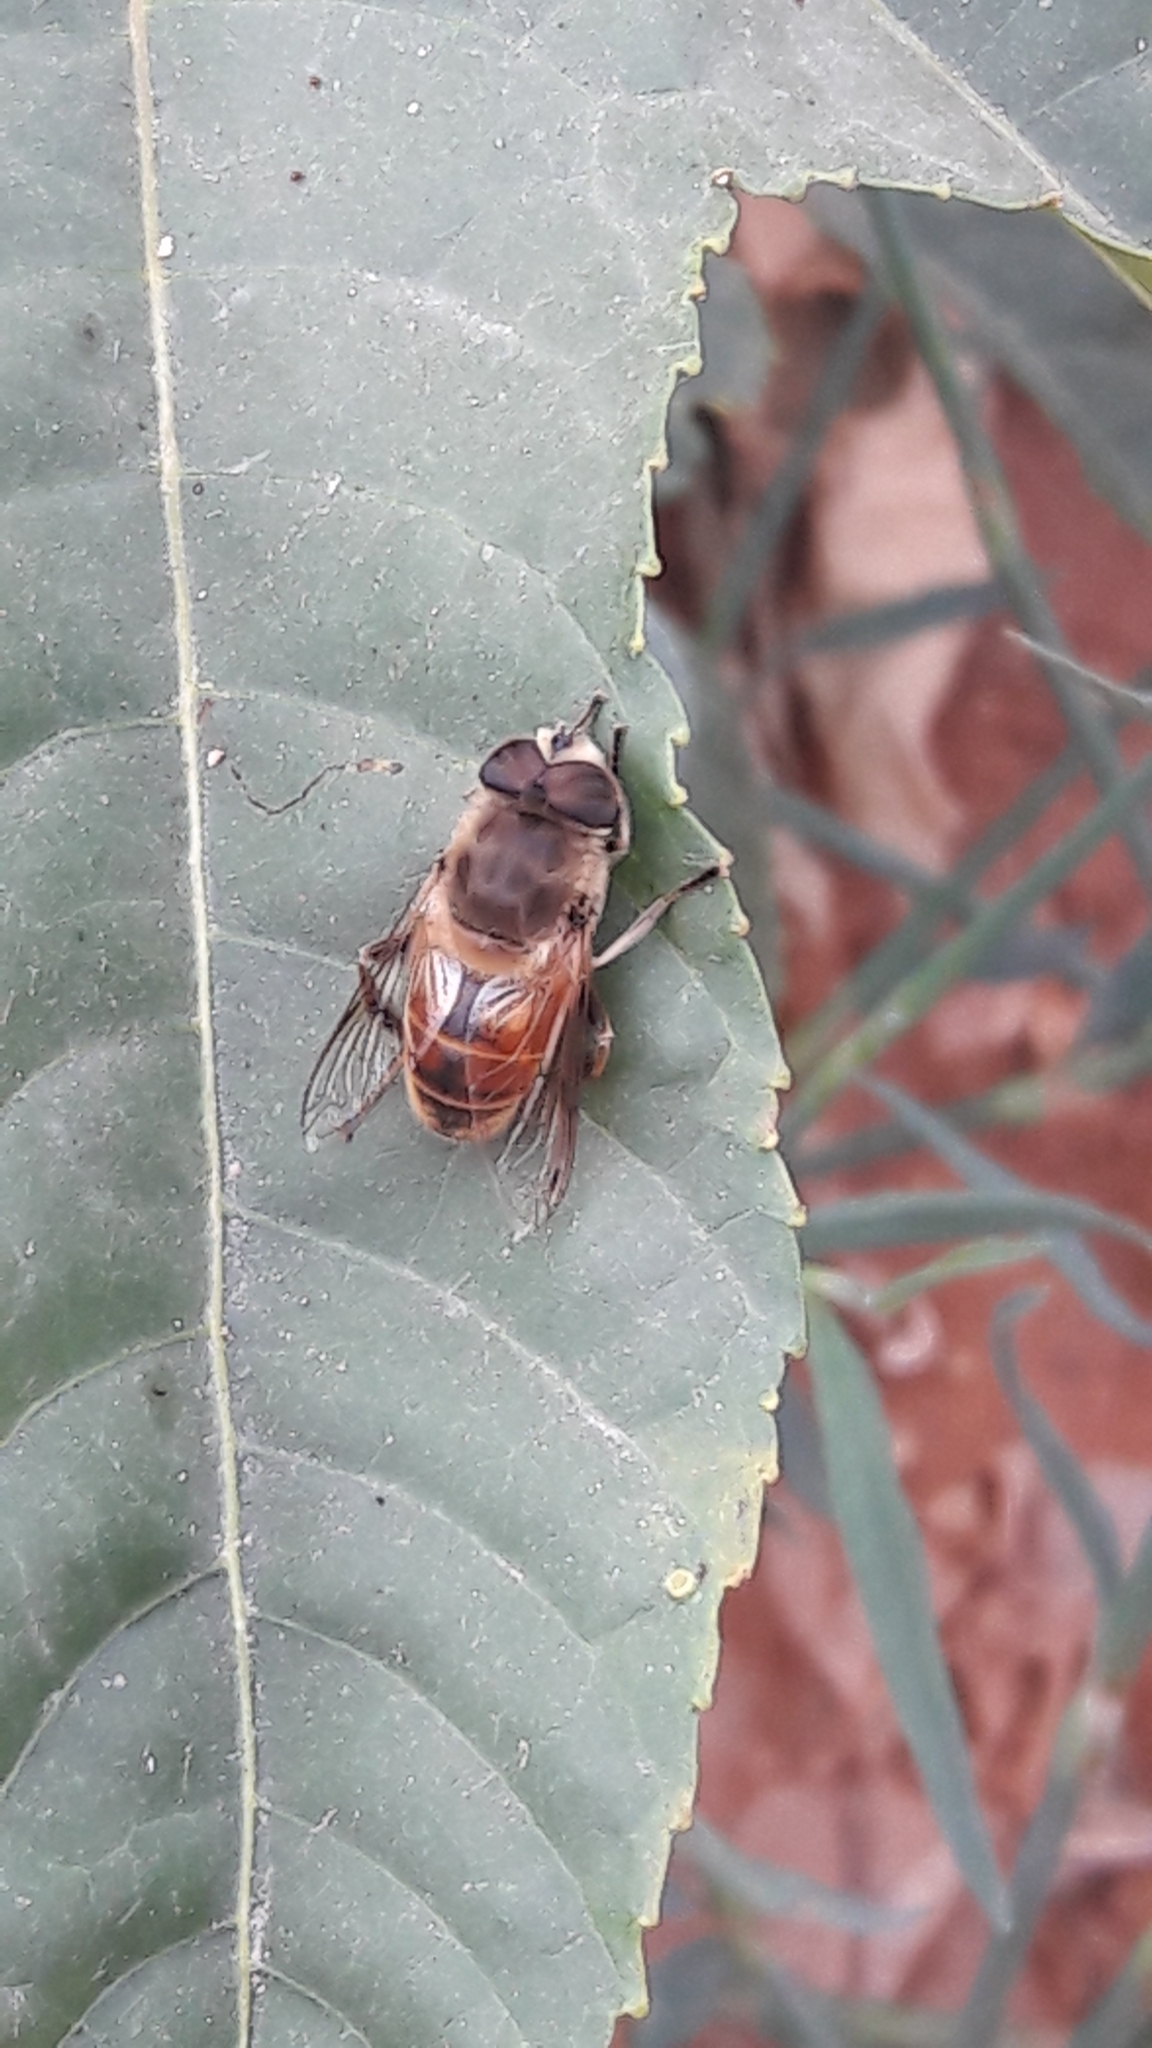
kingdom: Animalia
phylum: Arthropoda
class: Insecta
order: Diptera
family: Syrphidae
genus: Eristalis
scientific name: Eristalis tenax
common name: Drone fly
